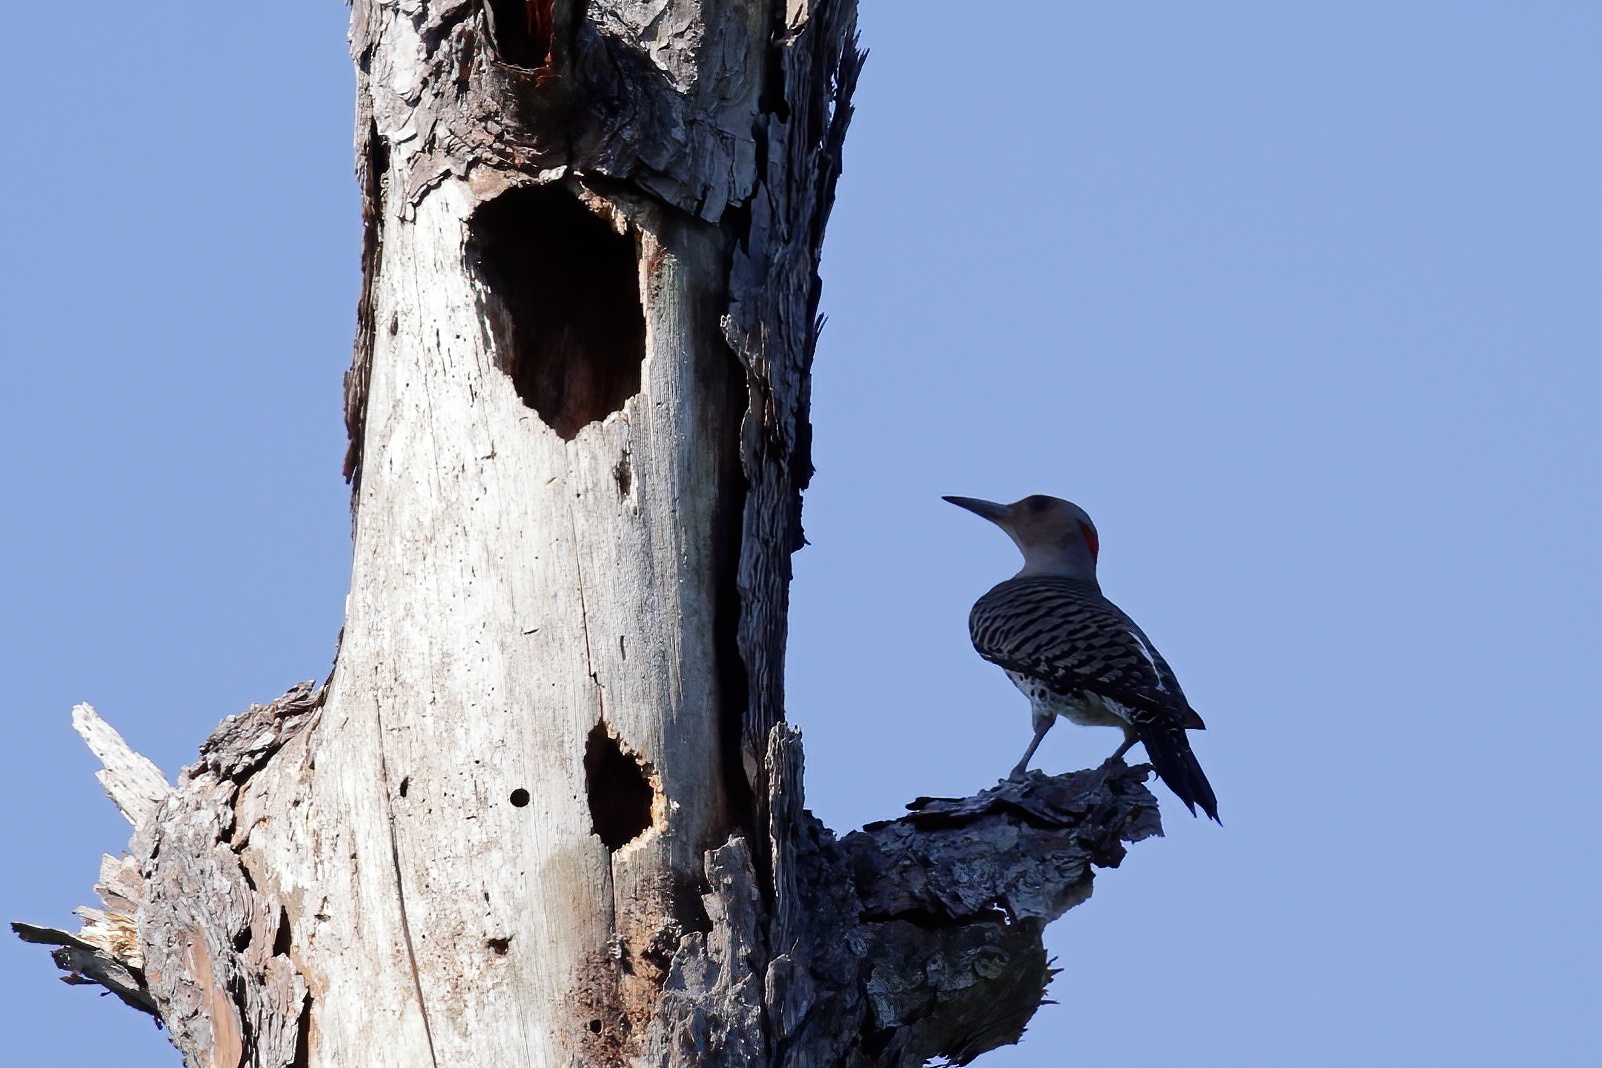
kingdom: Animalia
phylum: Chordata
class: Aves
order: Piciformes
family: Picidae
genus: Colaptes
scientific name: Colaptes auratus
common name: Northern flicker
